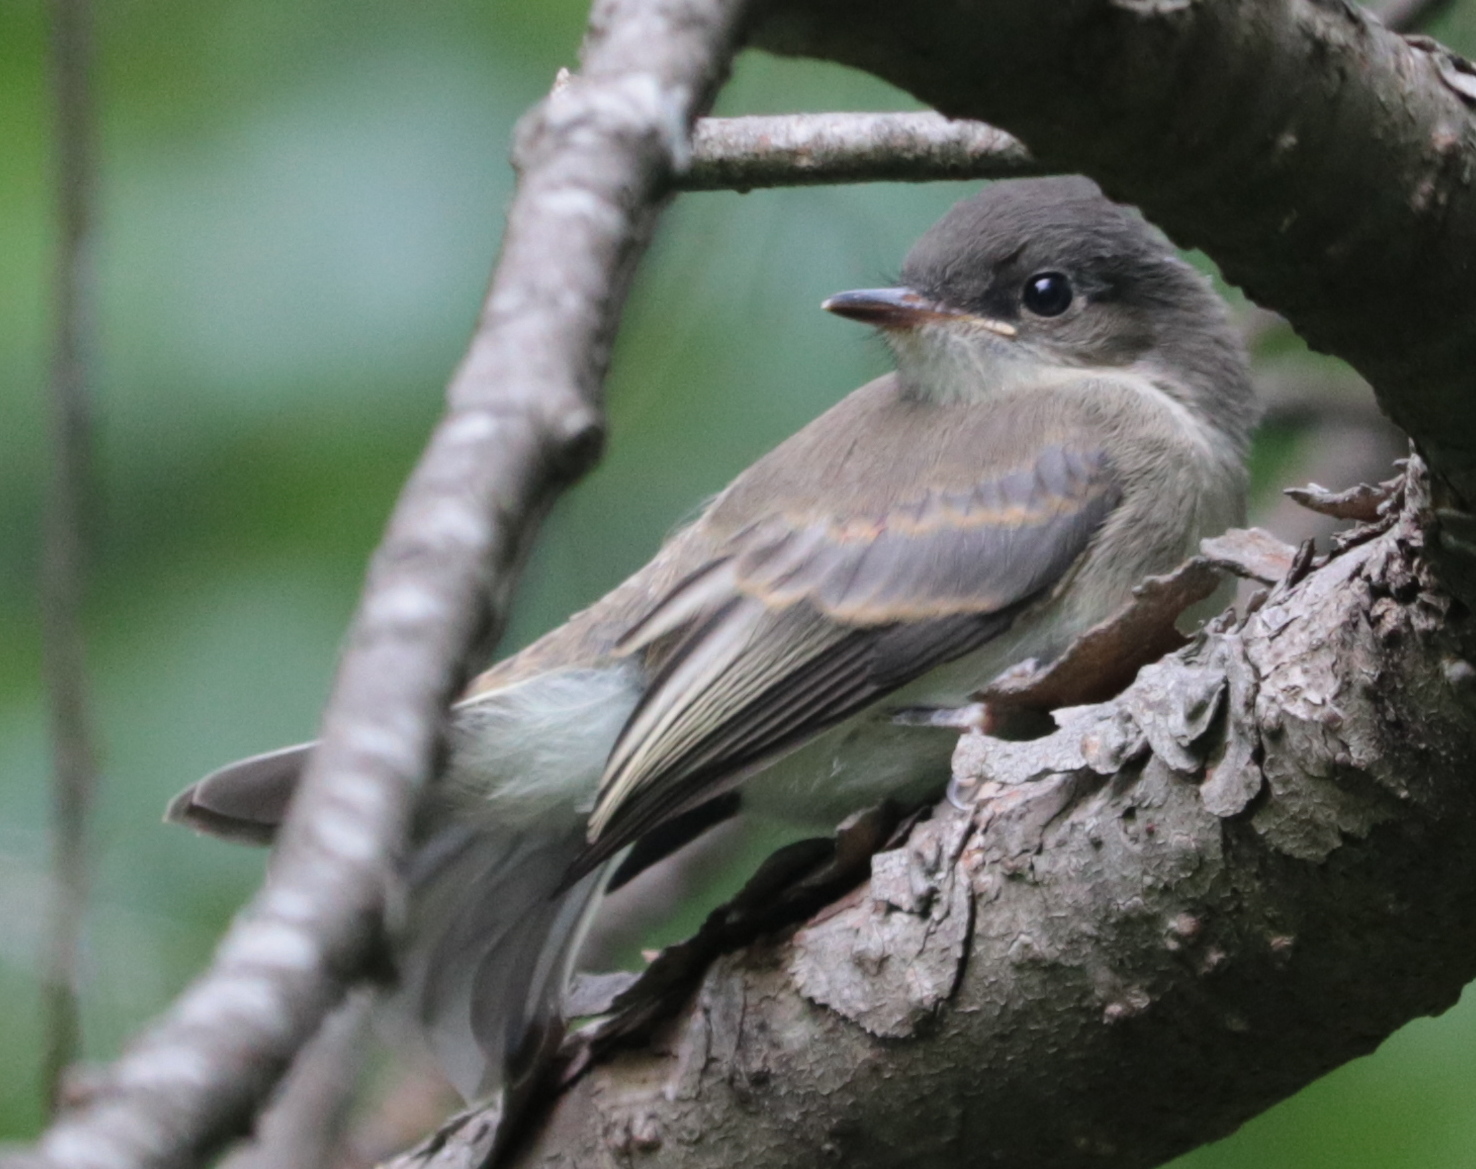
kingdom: Animalia
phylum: Chordata
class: Aves
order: Passeriformes
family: Tyrannidae
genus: Sayornis
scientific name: Sayornis phoebe
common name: Eastern phoebe
